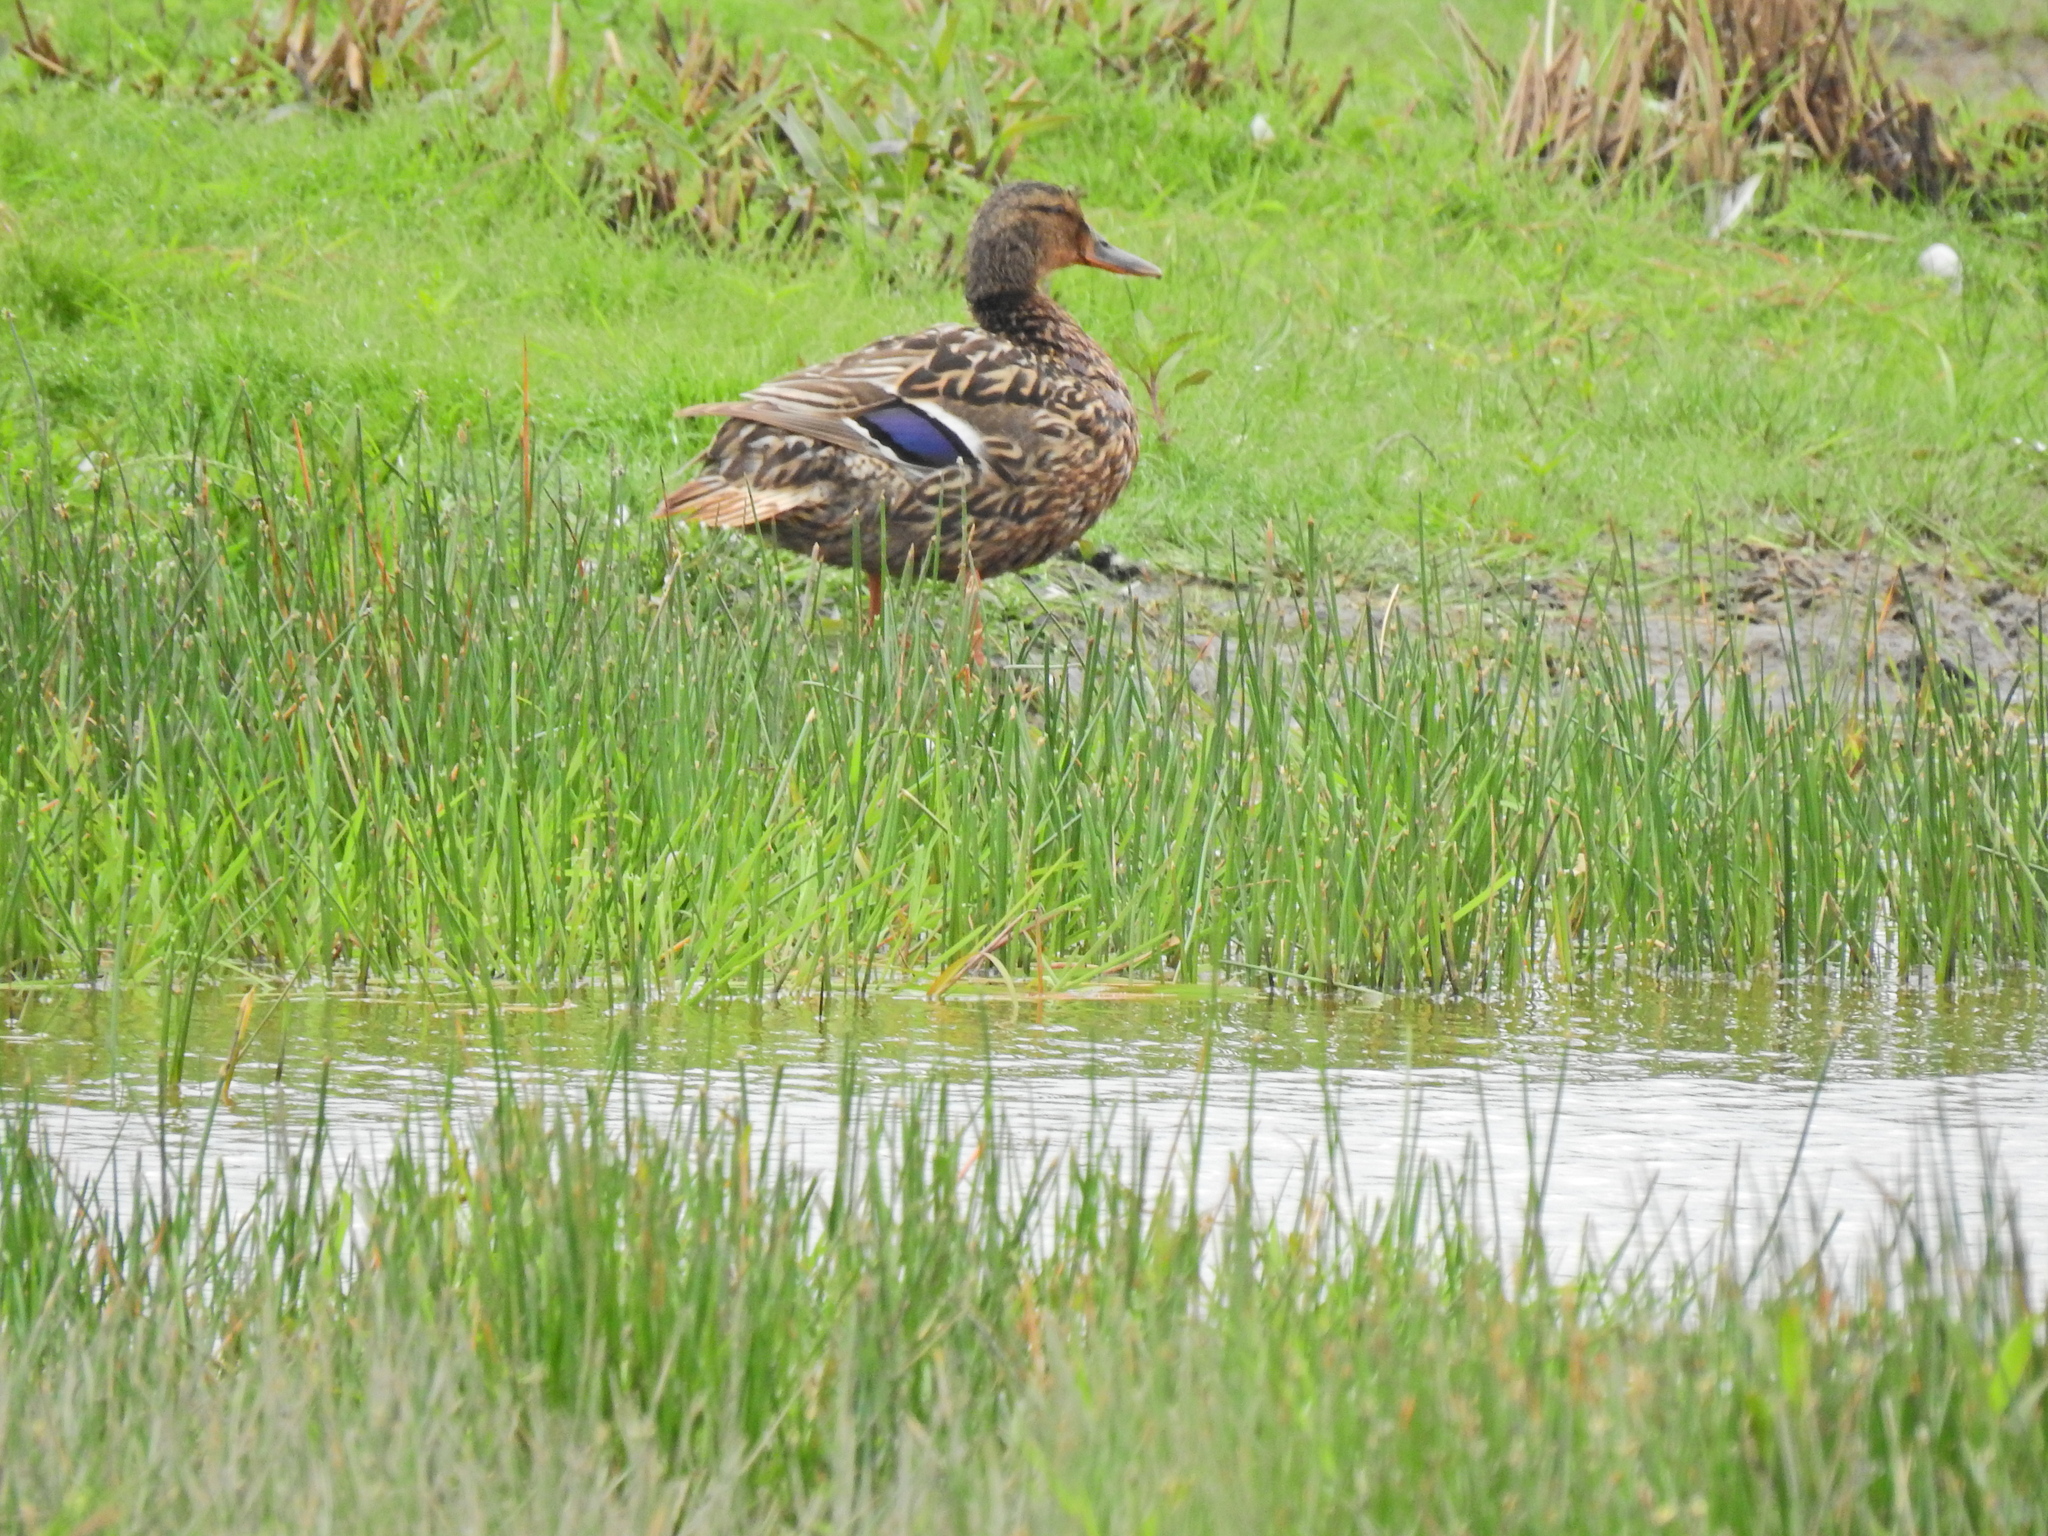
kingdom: Animalia
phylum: Chordata
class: Aves
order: Anseriformes
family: Anatidae
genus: Anas
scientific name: Anas platyrhynchos
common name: Mallard
